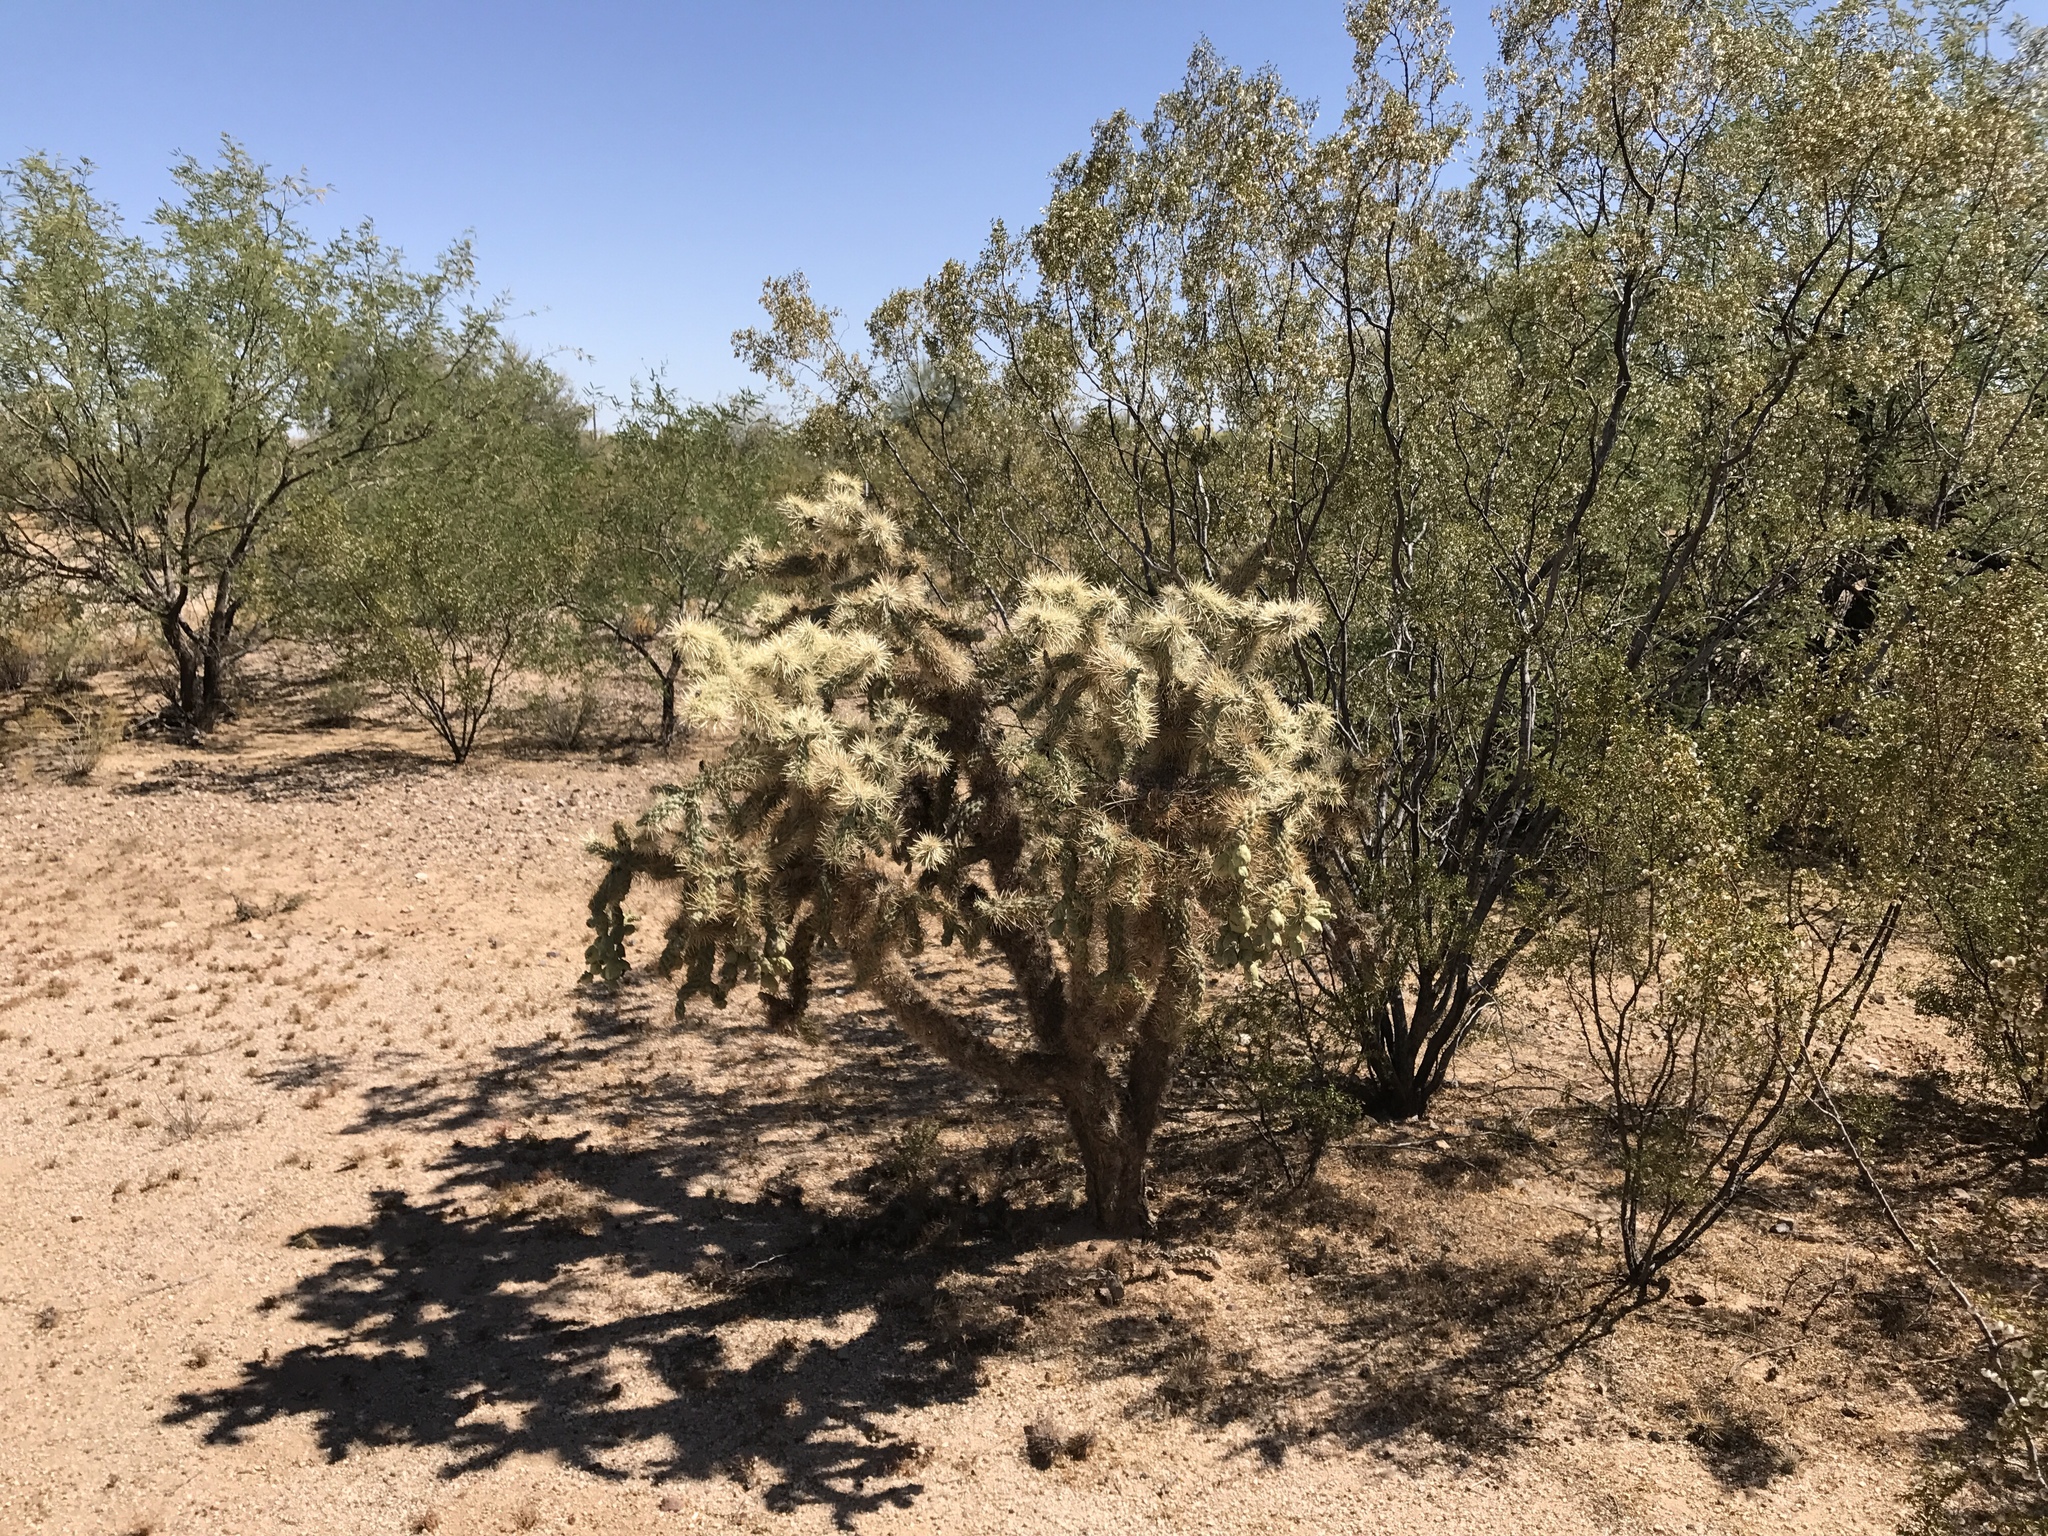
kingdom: Plantae
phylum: Tracheophyta
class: Magnoliopsida
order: Caryophyllales
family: Cactaceae
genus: Cylindropuntia
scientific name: Cylindropuntia fulgida
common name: Jumping cholla
